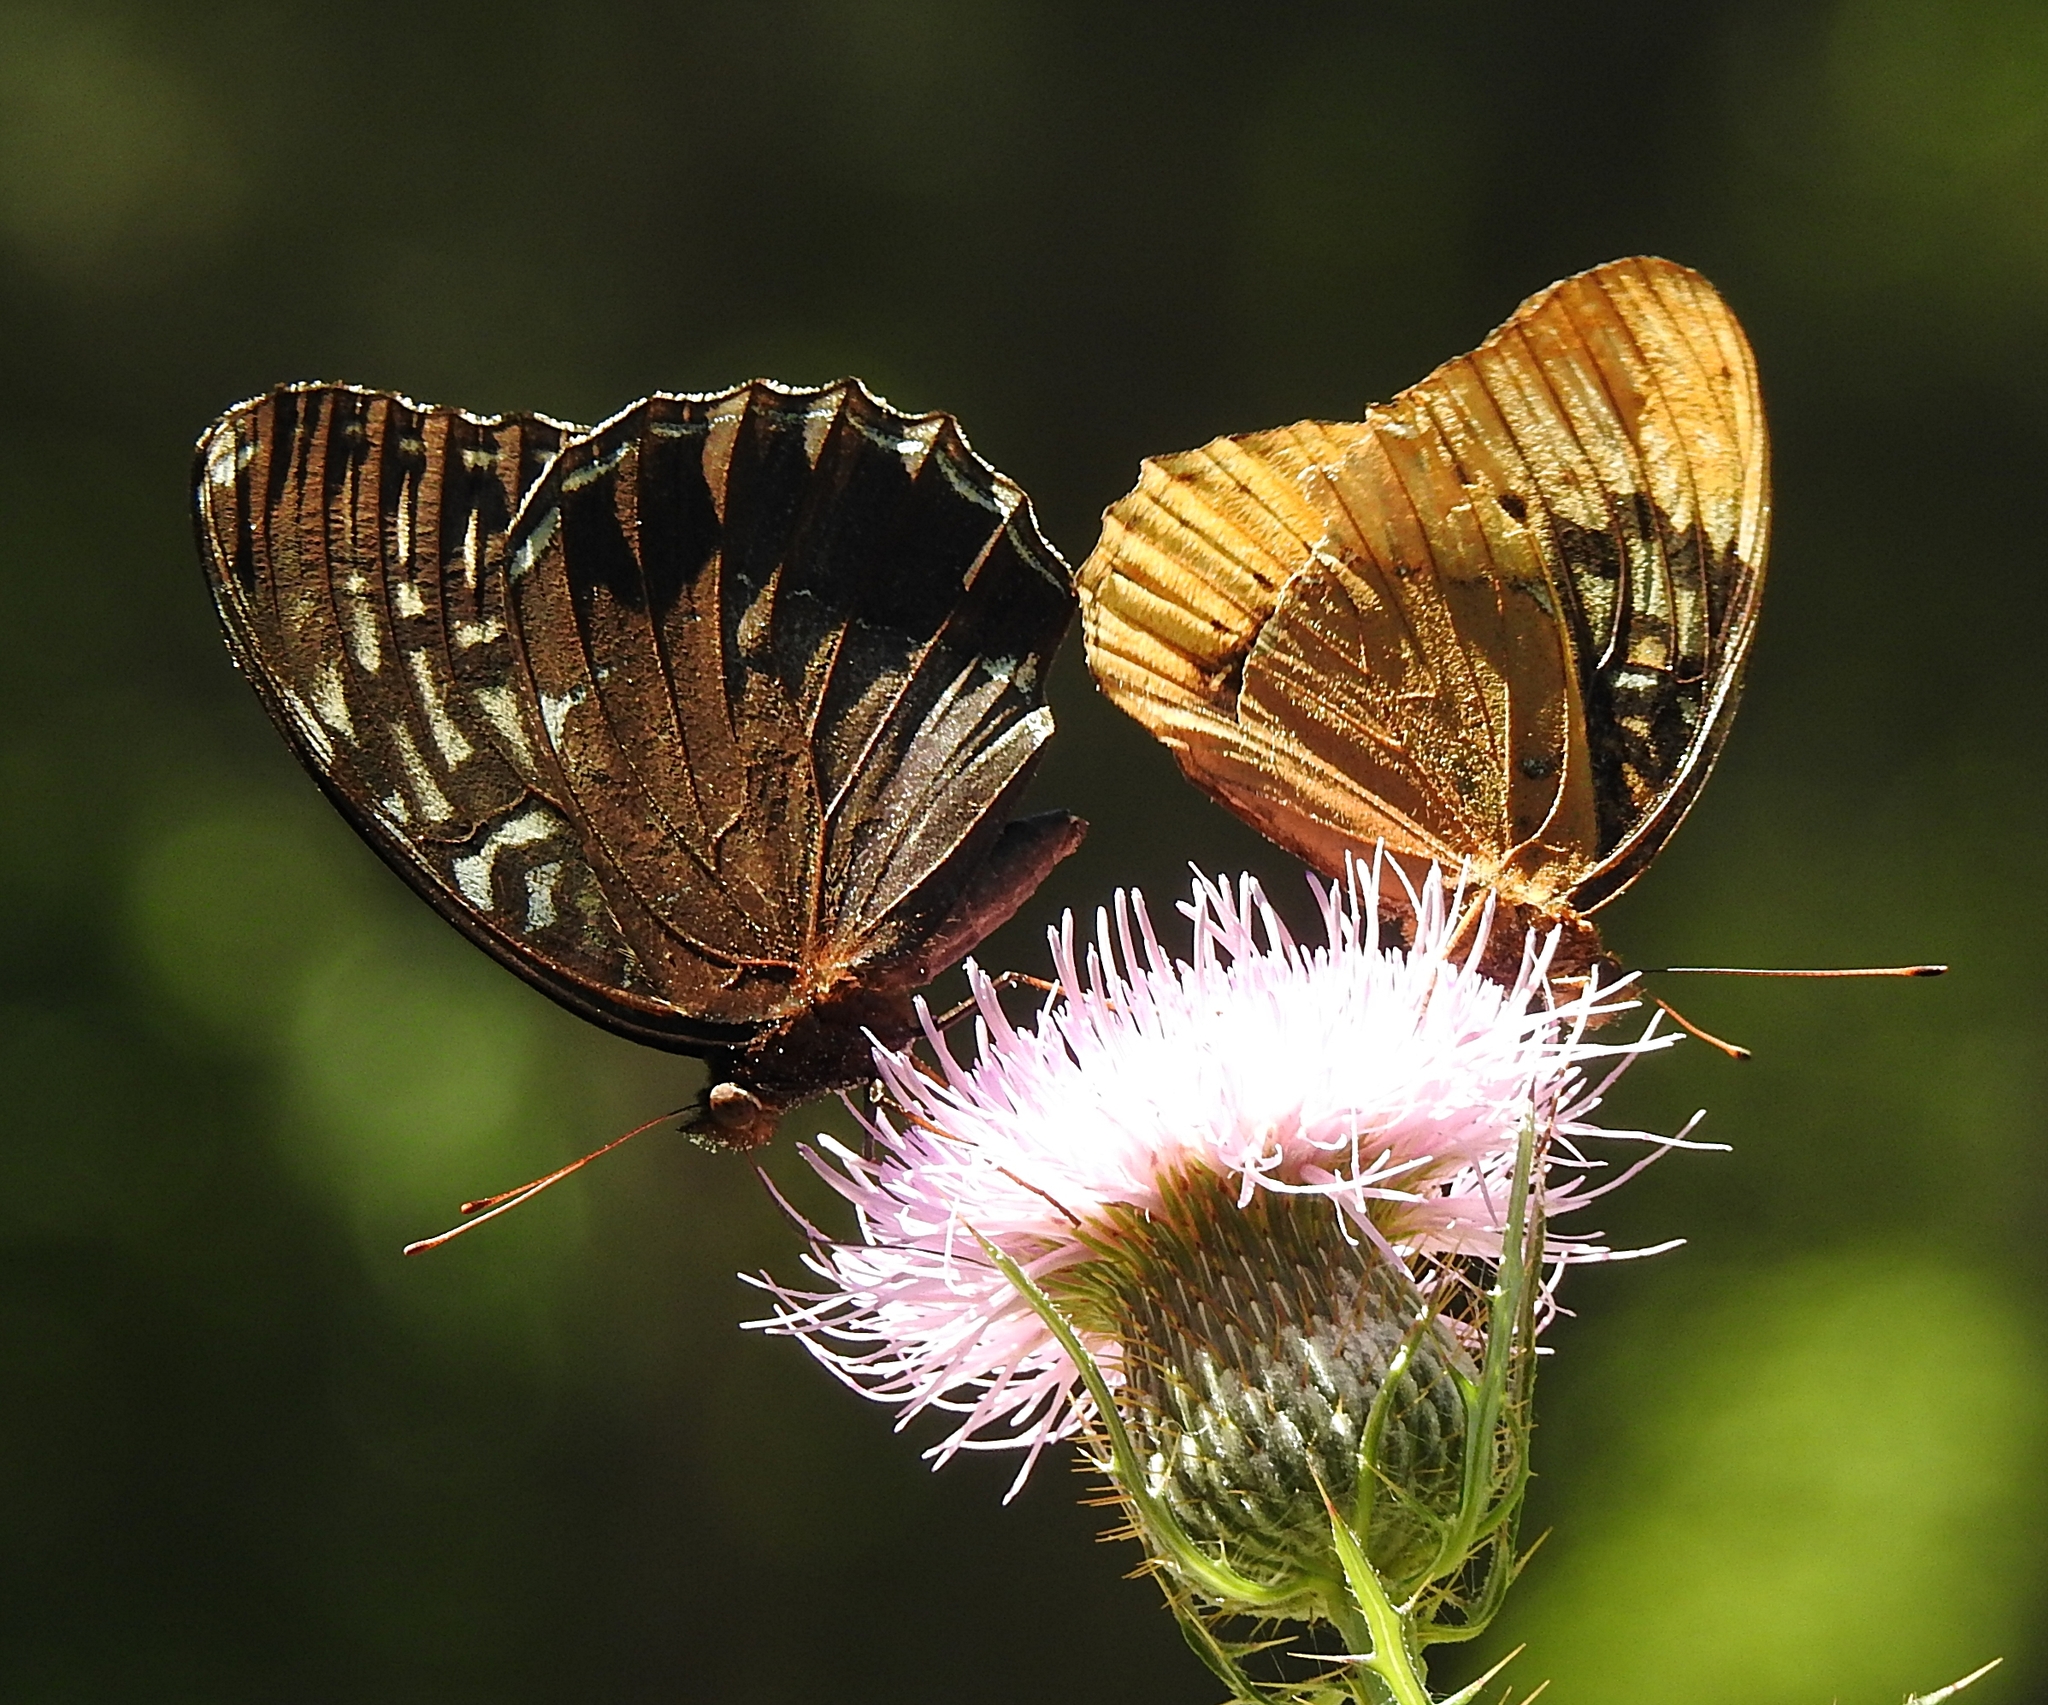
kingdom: Animalia
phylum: Arthropoda
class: Insecta
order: Lepidoptera
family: Nymphalidae
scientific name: Nymphalidae
